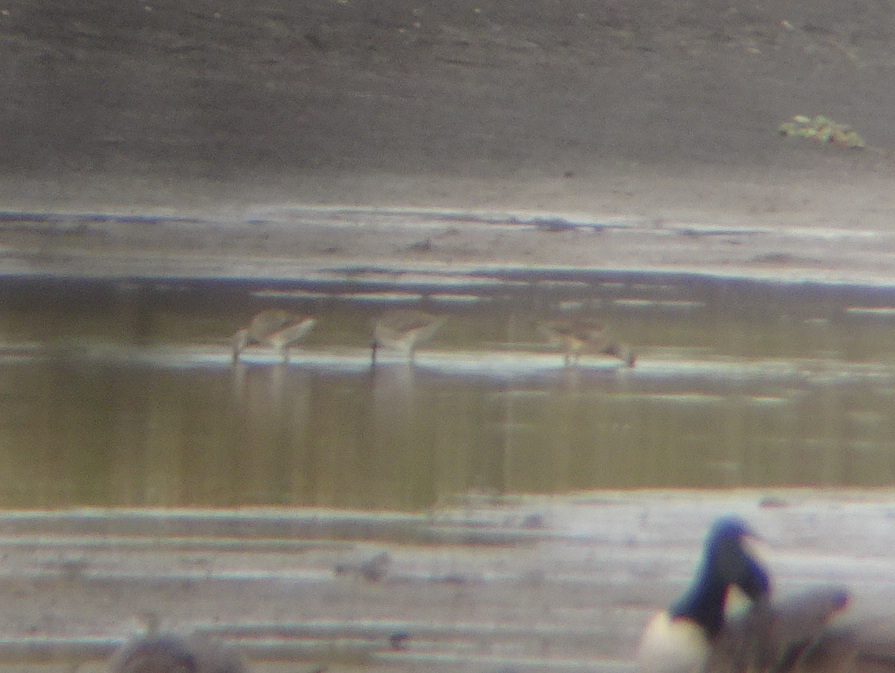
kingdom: Animalia
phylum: Chordata
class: Aves
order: Charadriiformes
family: Scolopacidae
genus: Limnodromus
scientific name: Limnodromus
